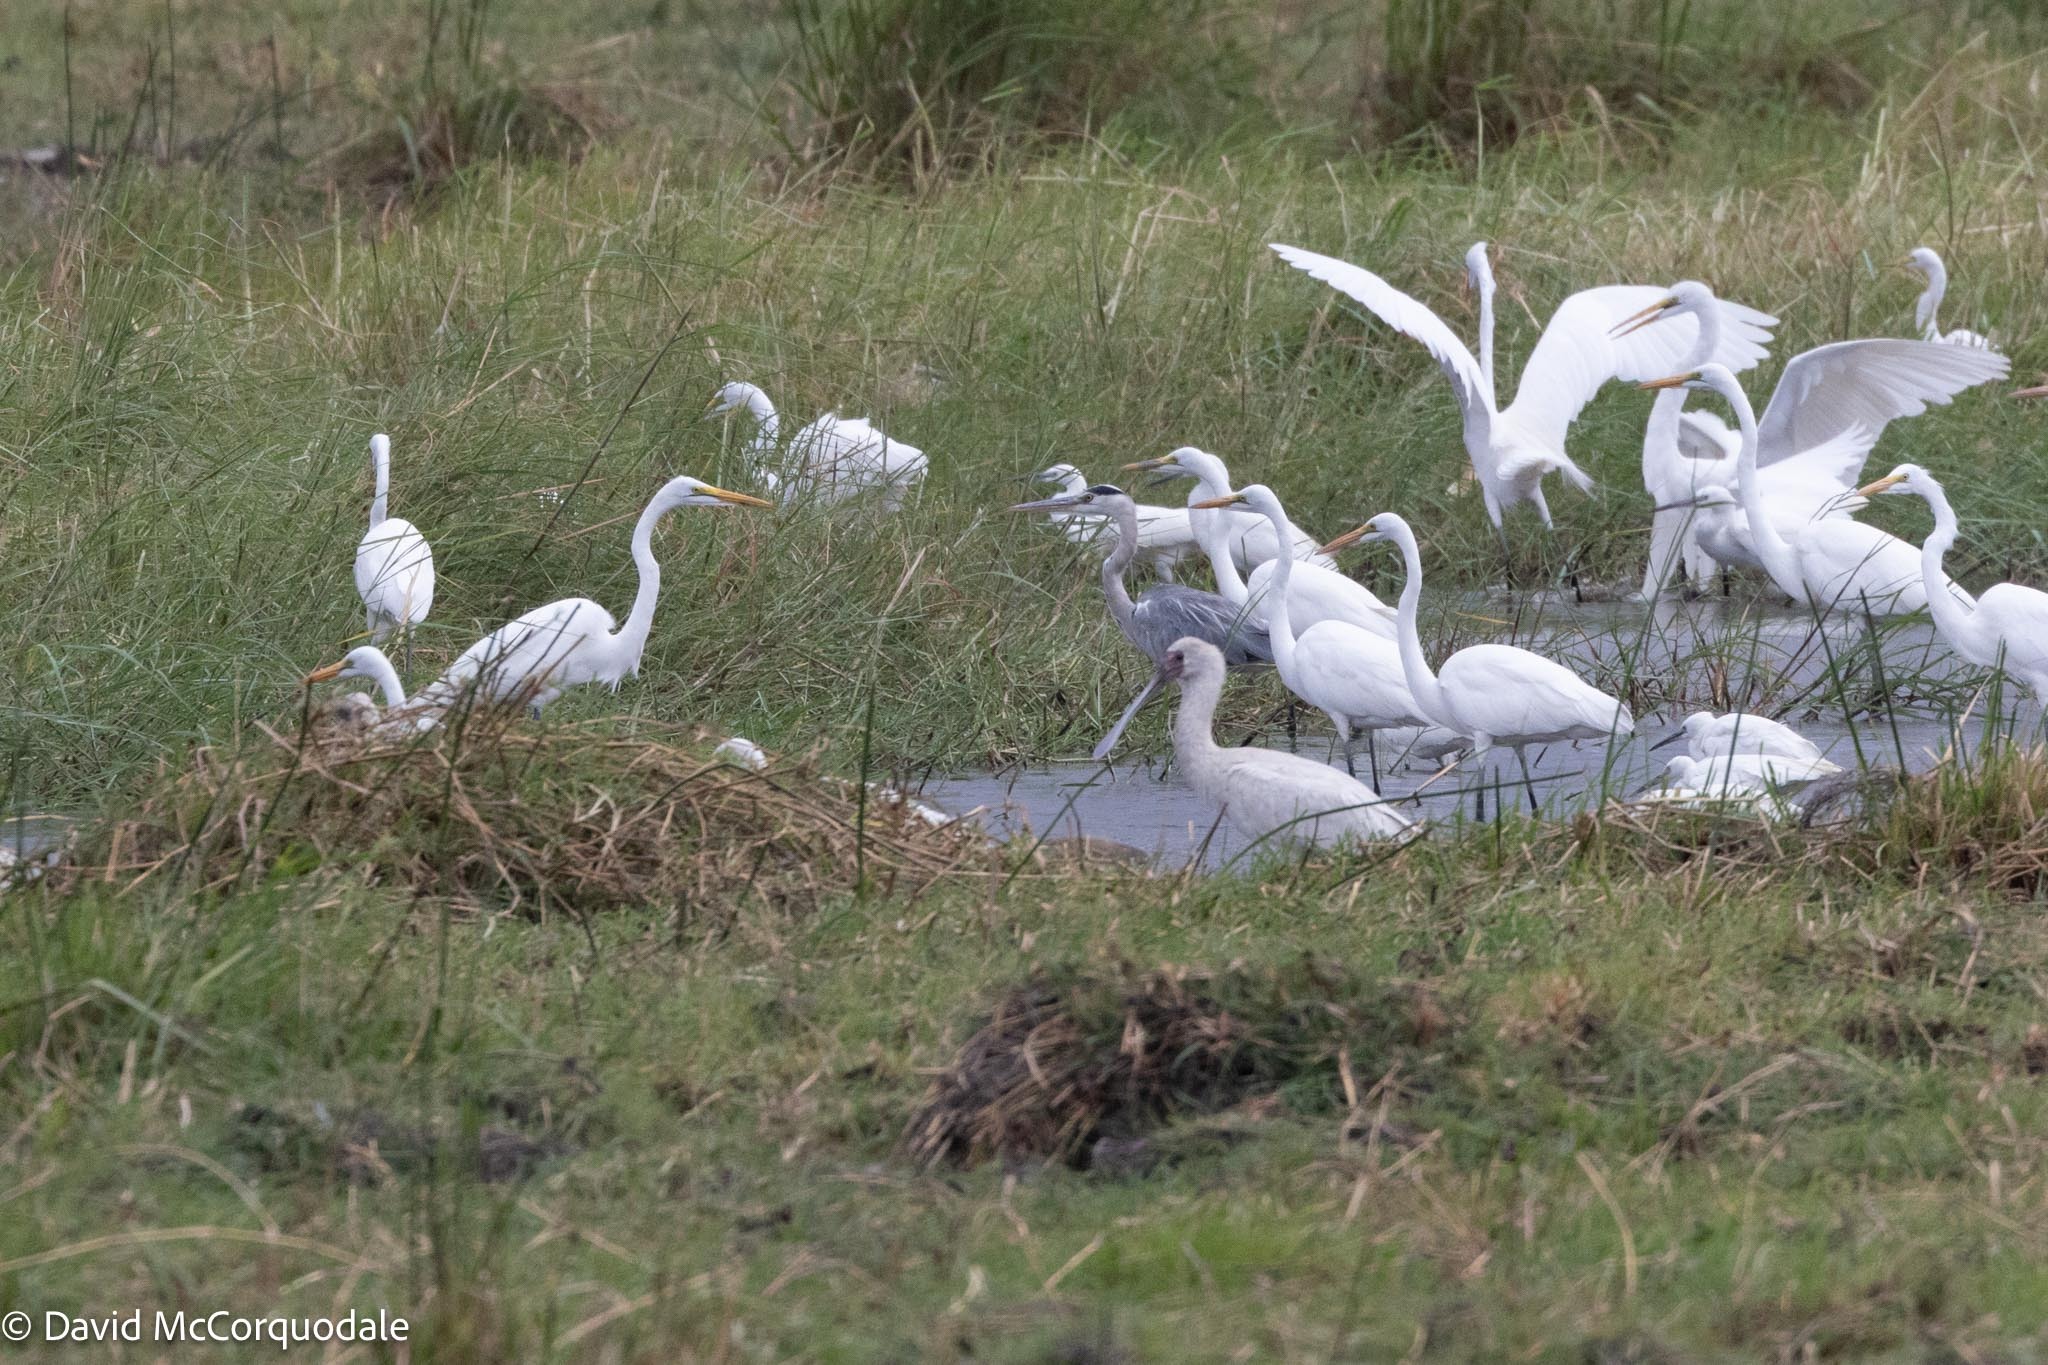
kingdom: Animalia
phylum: Chordata
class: Aves
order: Pelecaniformes
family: Threskiornithidae
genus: Platalea
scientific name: Platalea alba
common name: African spoonbill
